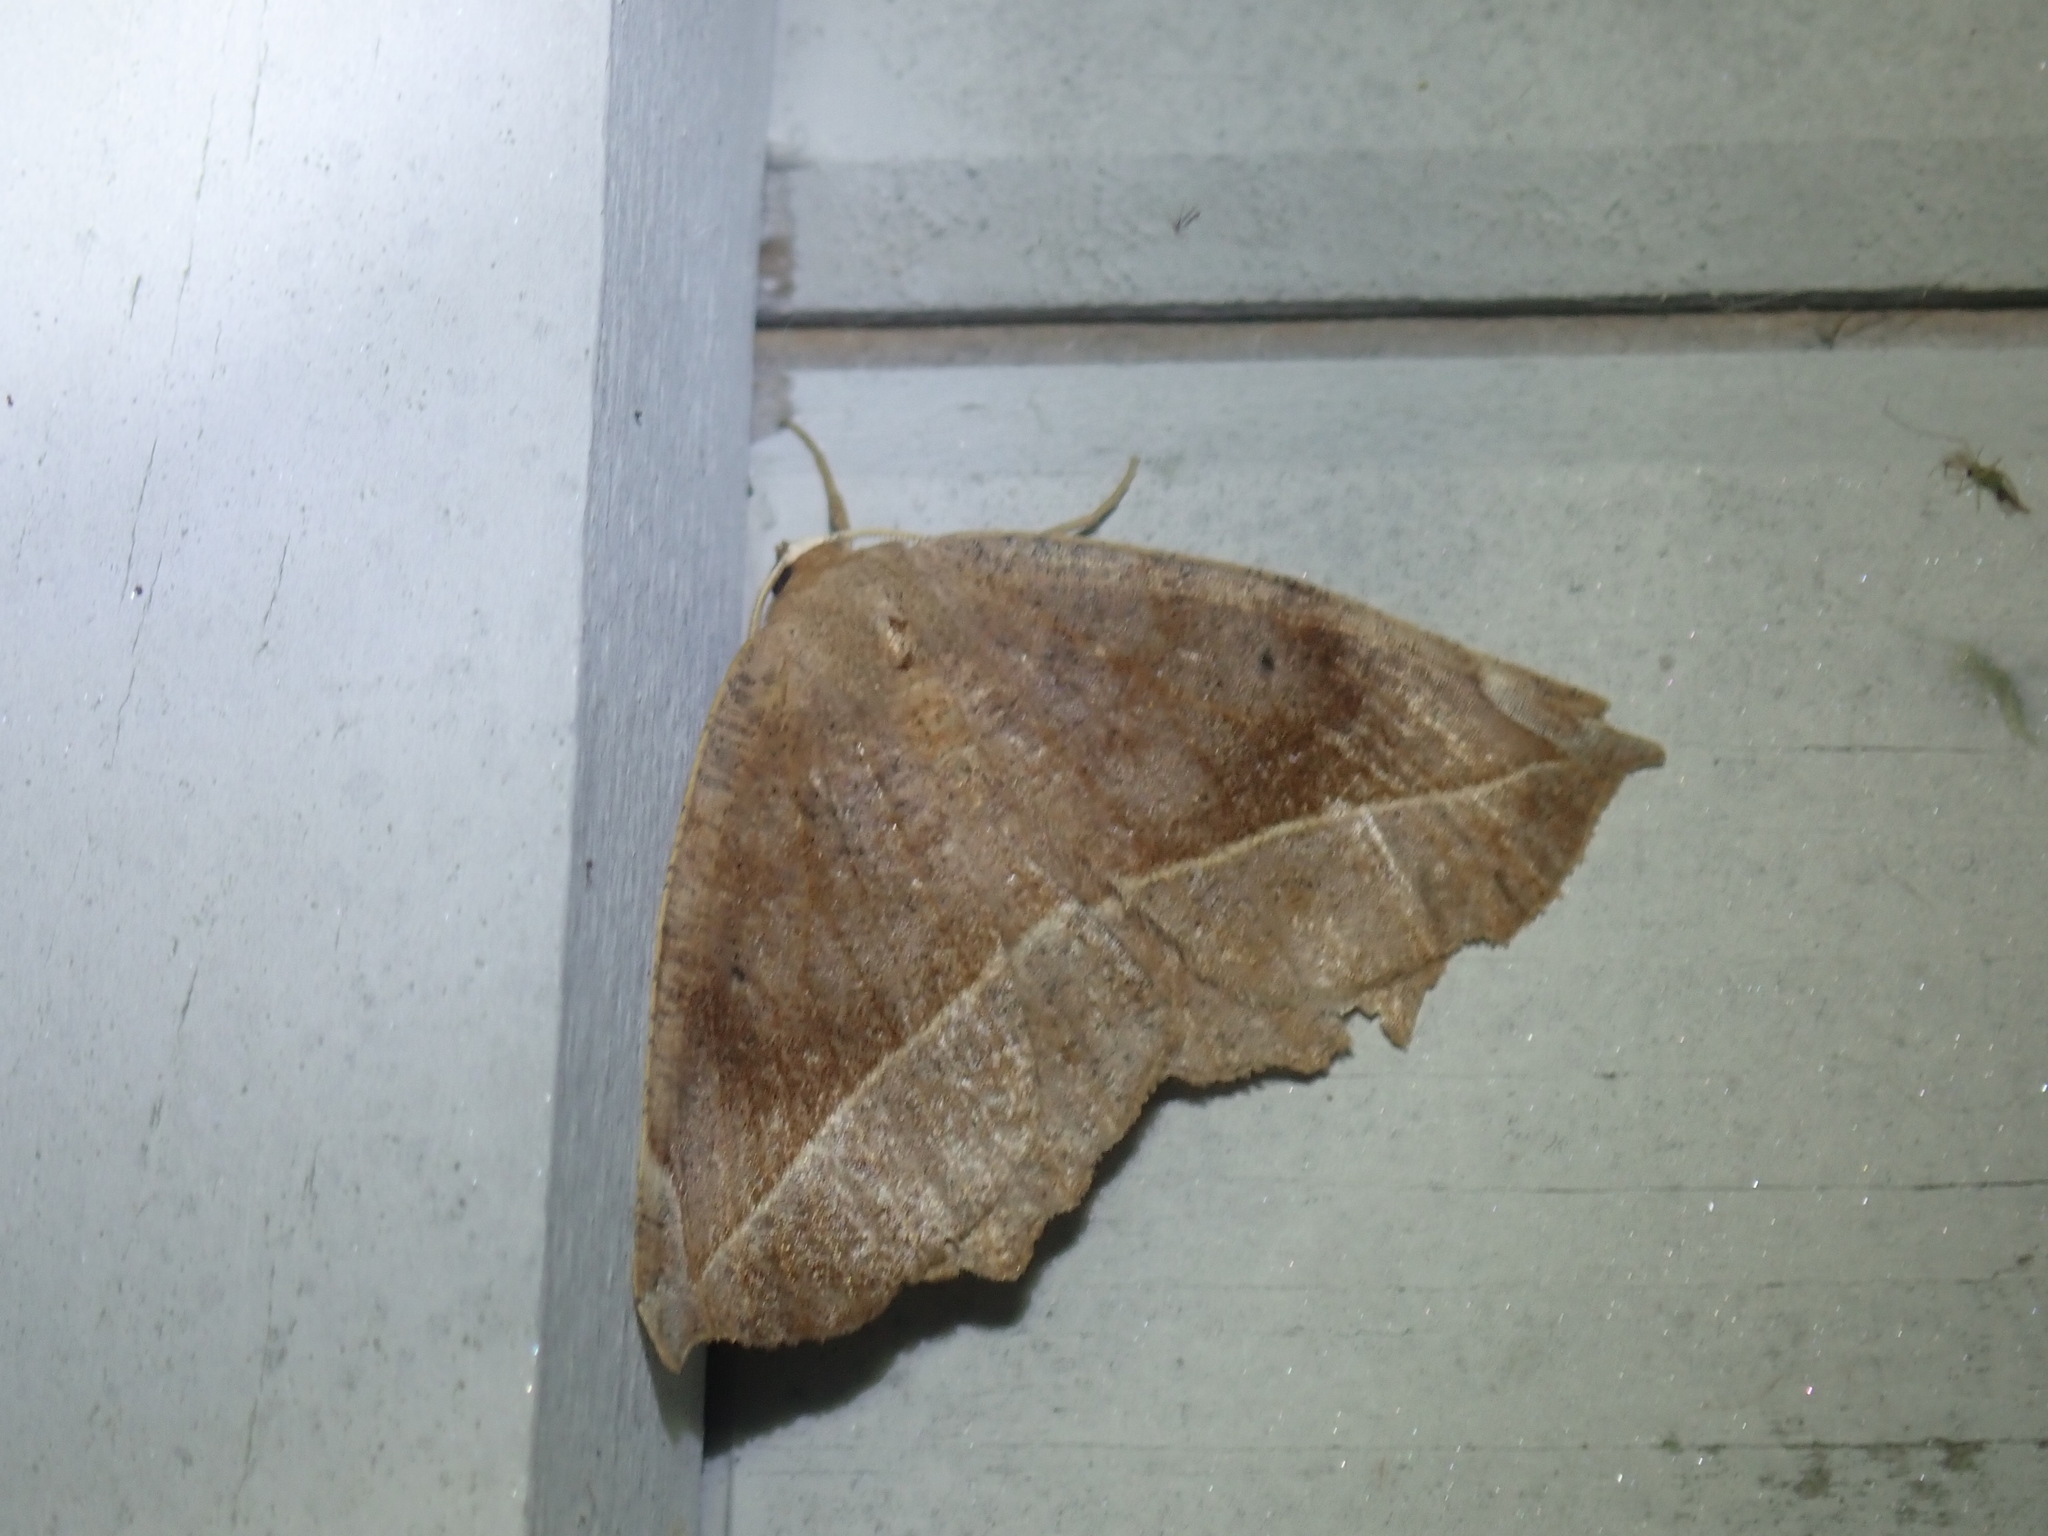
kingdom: Animalia
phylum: Arthropoda
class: Insecta
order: Lepidoptera
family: Geometridae
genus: Eutrapela
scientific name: Eutrapela clemataria
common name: Curved-toothed geometer
